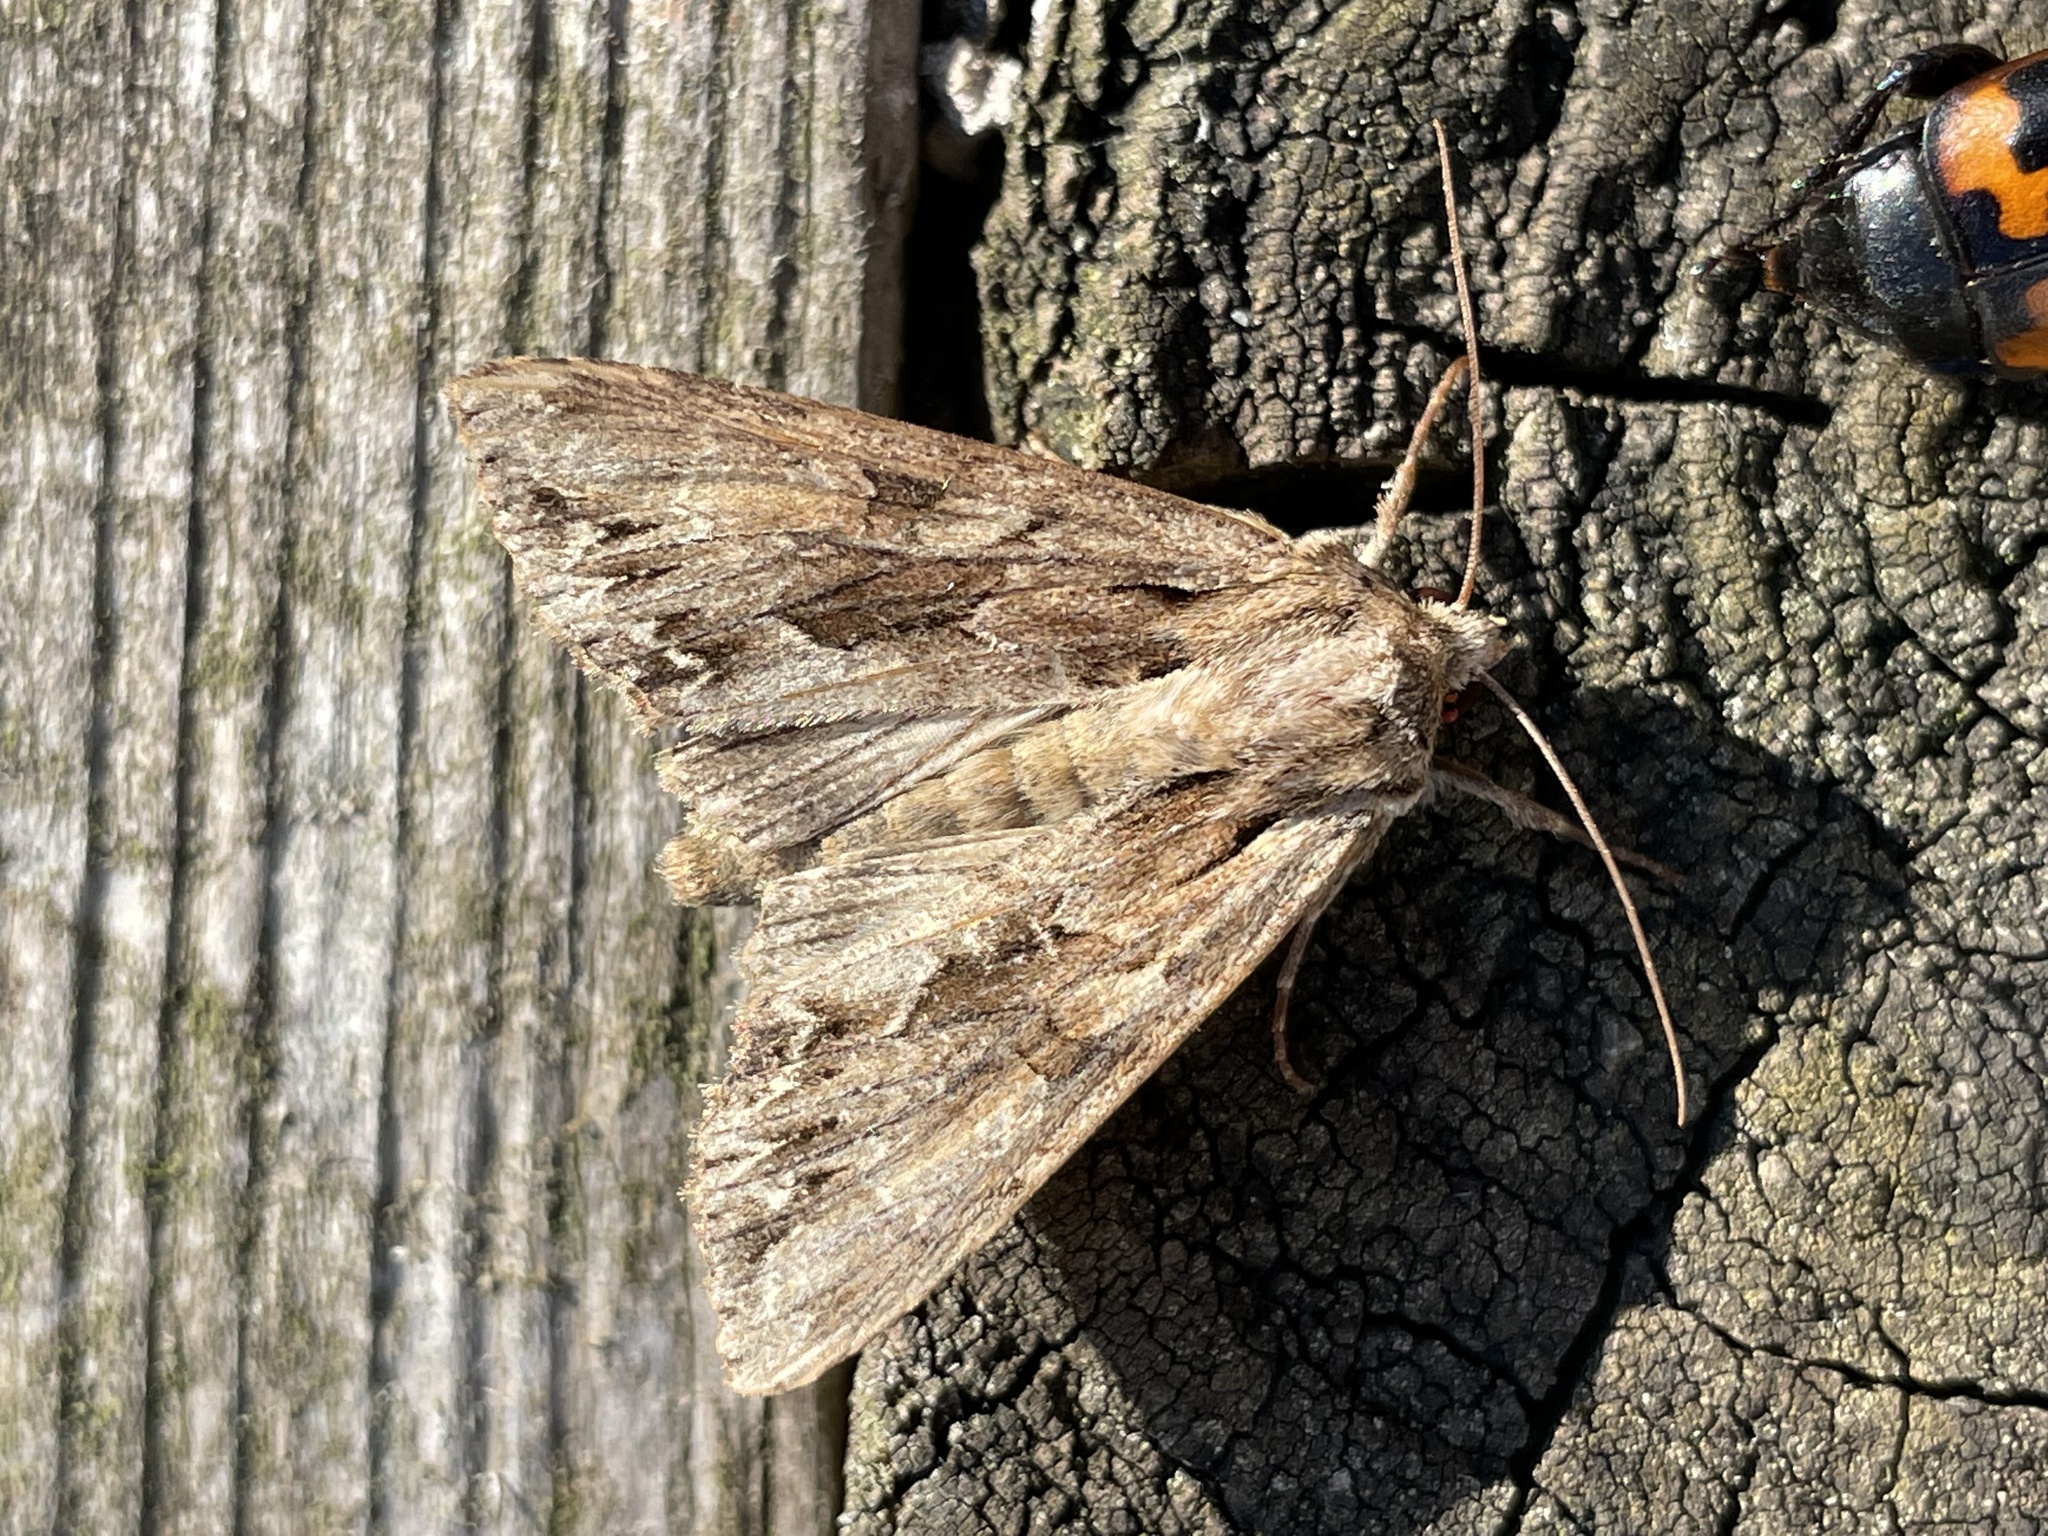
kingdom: Animalia
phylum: Arthropoda
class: Insecta
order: Lepidoptera
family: Noctuidae
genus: Apamea
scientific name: Apamea monoglypha
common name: Dark arches
